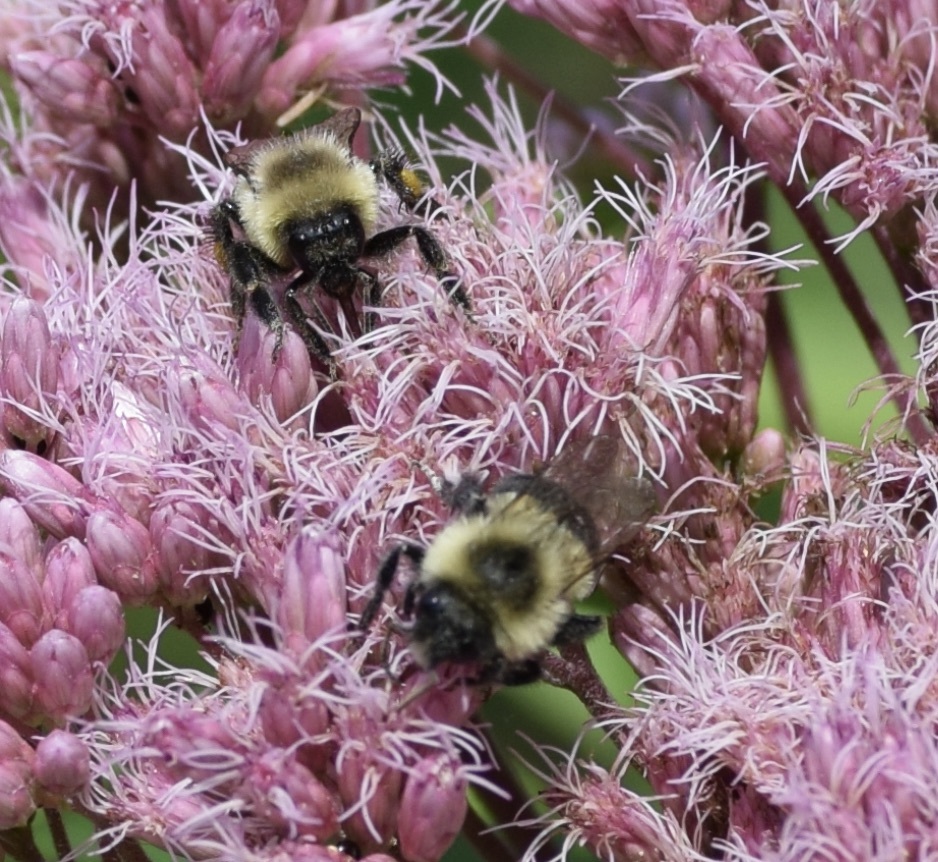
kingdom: Animalia
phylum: Arthropoda
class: Insecta
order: Hymenoptera
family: Apidae
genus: Bombus
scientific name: Bombus impatiens
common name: Common eastern bumble bee
